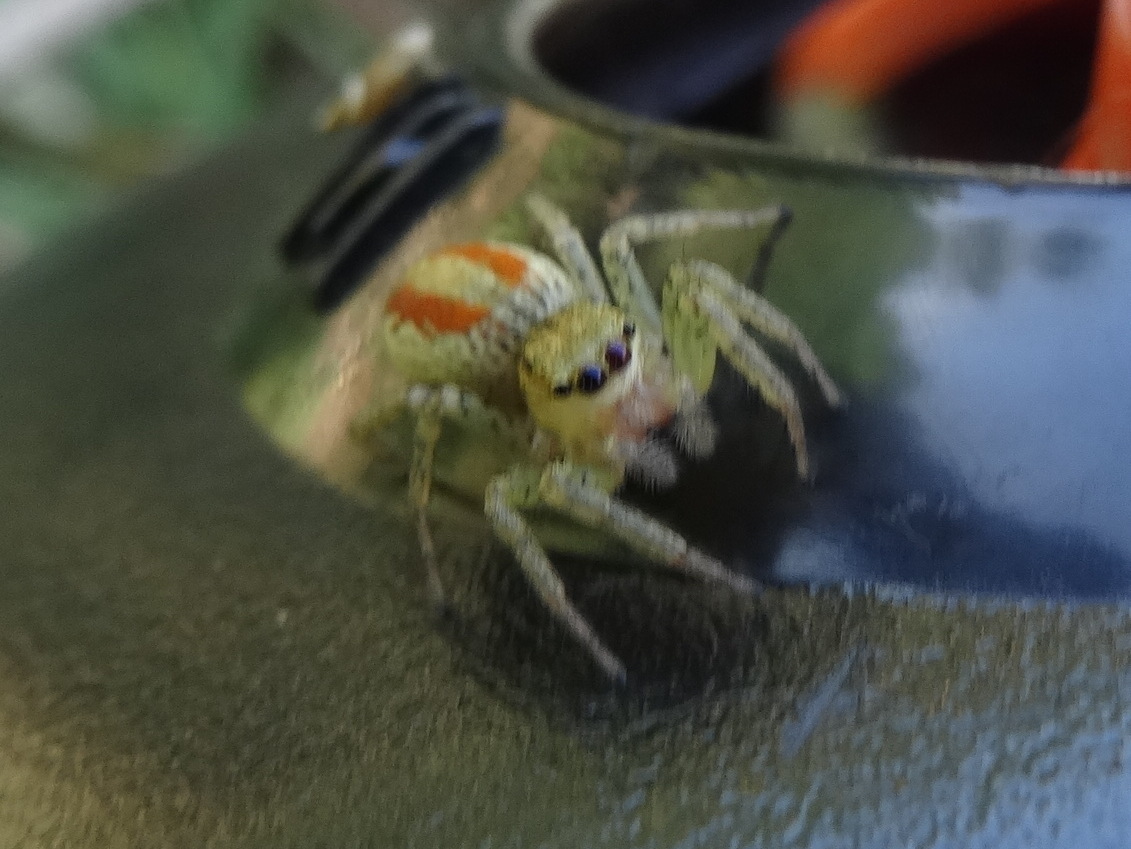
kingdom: Animalia
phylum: Arthropoda
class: Arachnida
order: Araneae
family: Salticidae
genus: Maevia
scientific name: Maevia inclemens
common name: Dimorphic jumper
